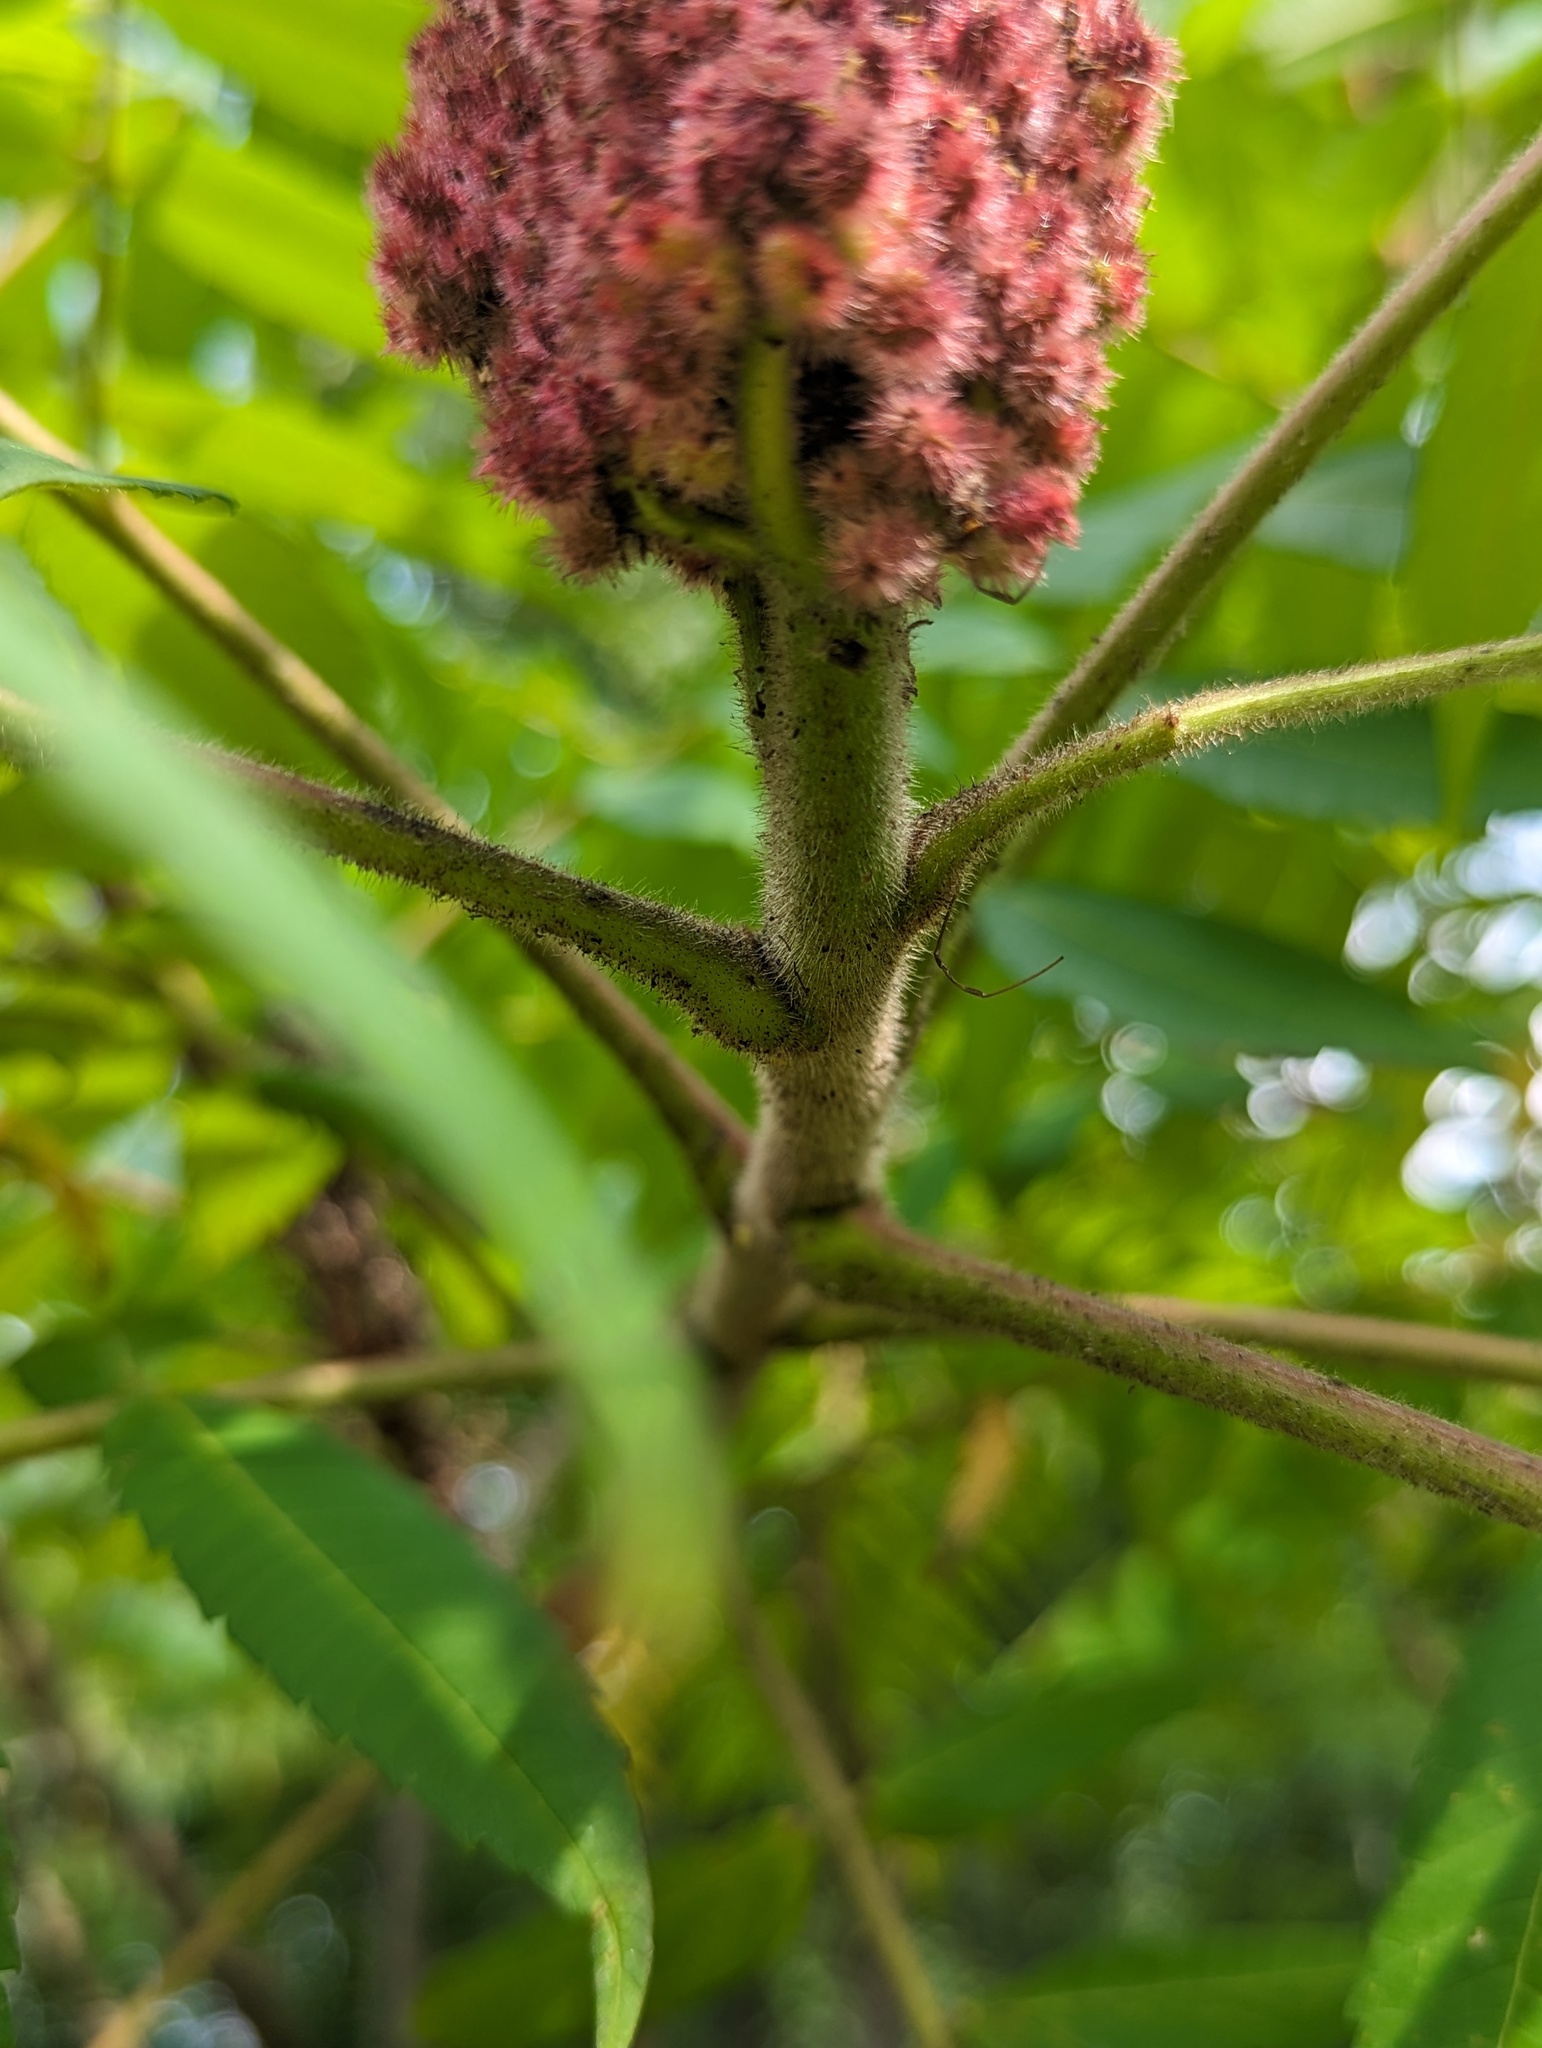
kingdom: Plantae
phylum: Tracheophyta
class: Magnoliopsida
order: Sapindales
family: Anacardiaceae
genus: Rhus
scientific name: Rhus typhina
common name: Staghorn sumac
